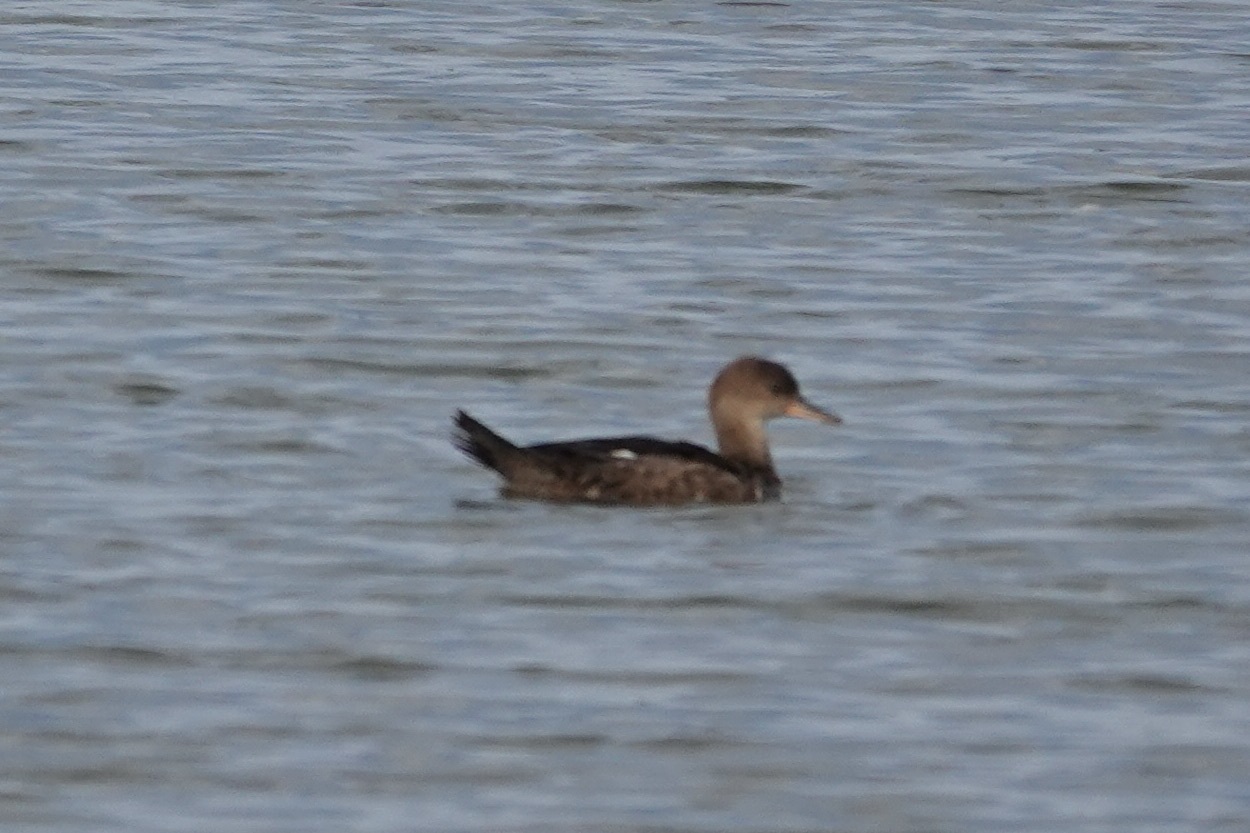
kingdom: Animalia
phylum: Chordata
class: Aves
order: Anseriformes
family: Anatidae
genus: Lophodytes
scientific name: Lophodytes cucullatus
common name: Hooded merganser
